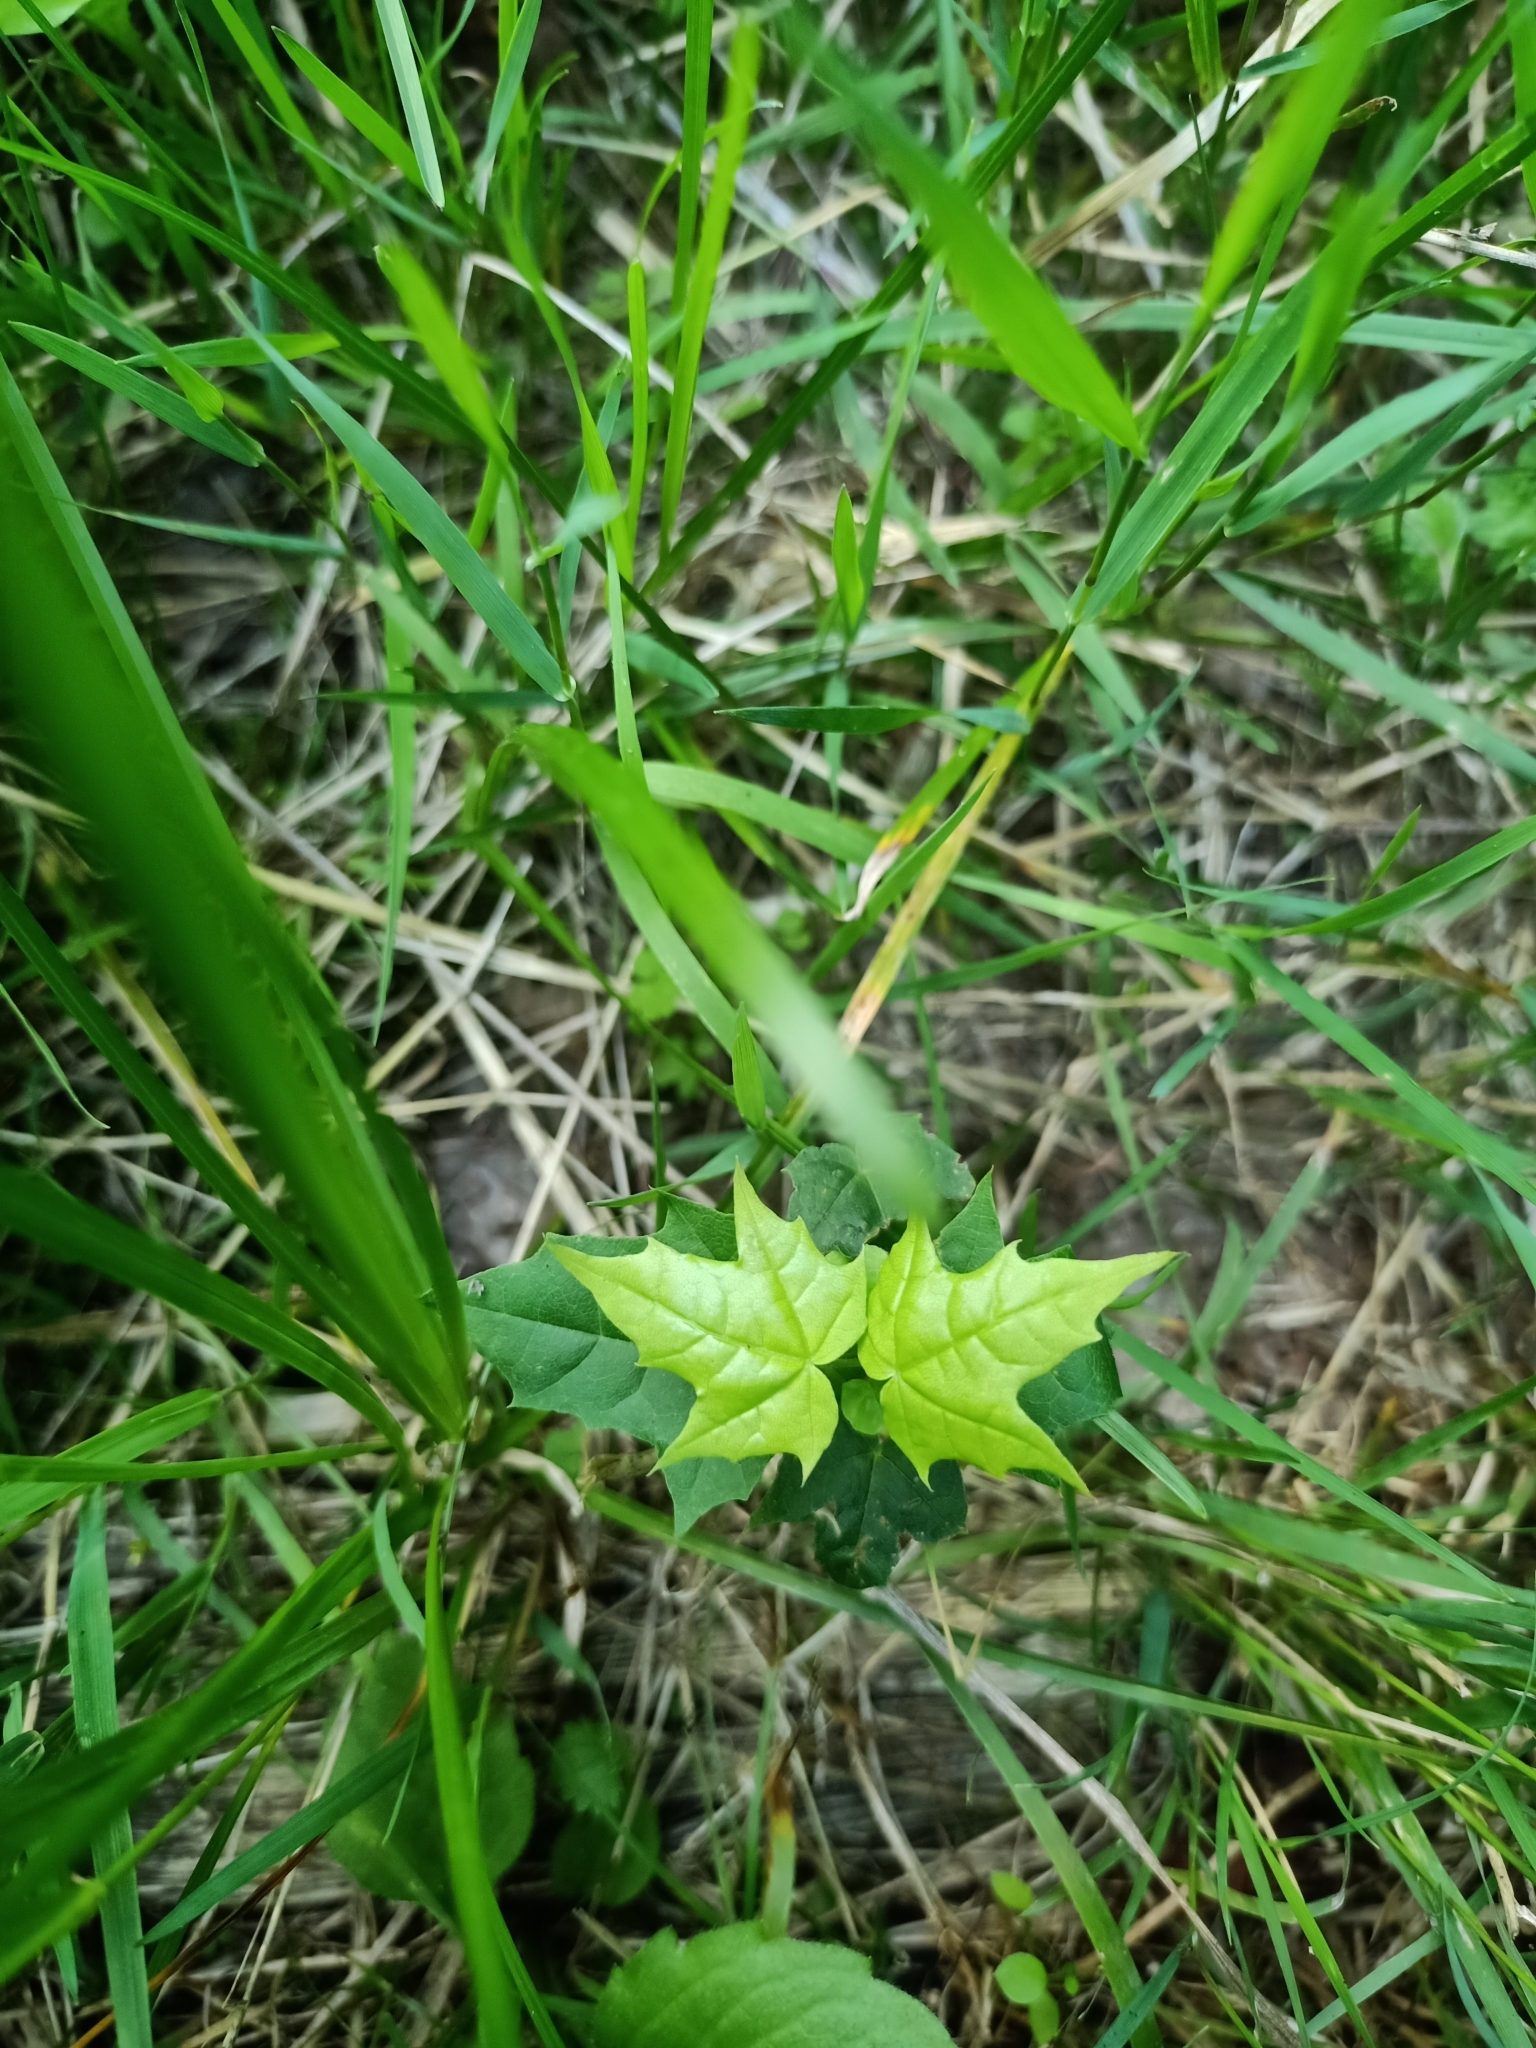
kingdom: Plantae
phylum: Tracheophyta
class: Magnoliopsida
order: Sapindales
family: Sapindaceae
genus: Acer
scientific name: Acer platanoides
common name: Norway maple
